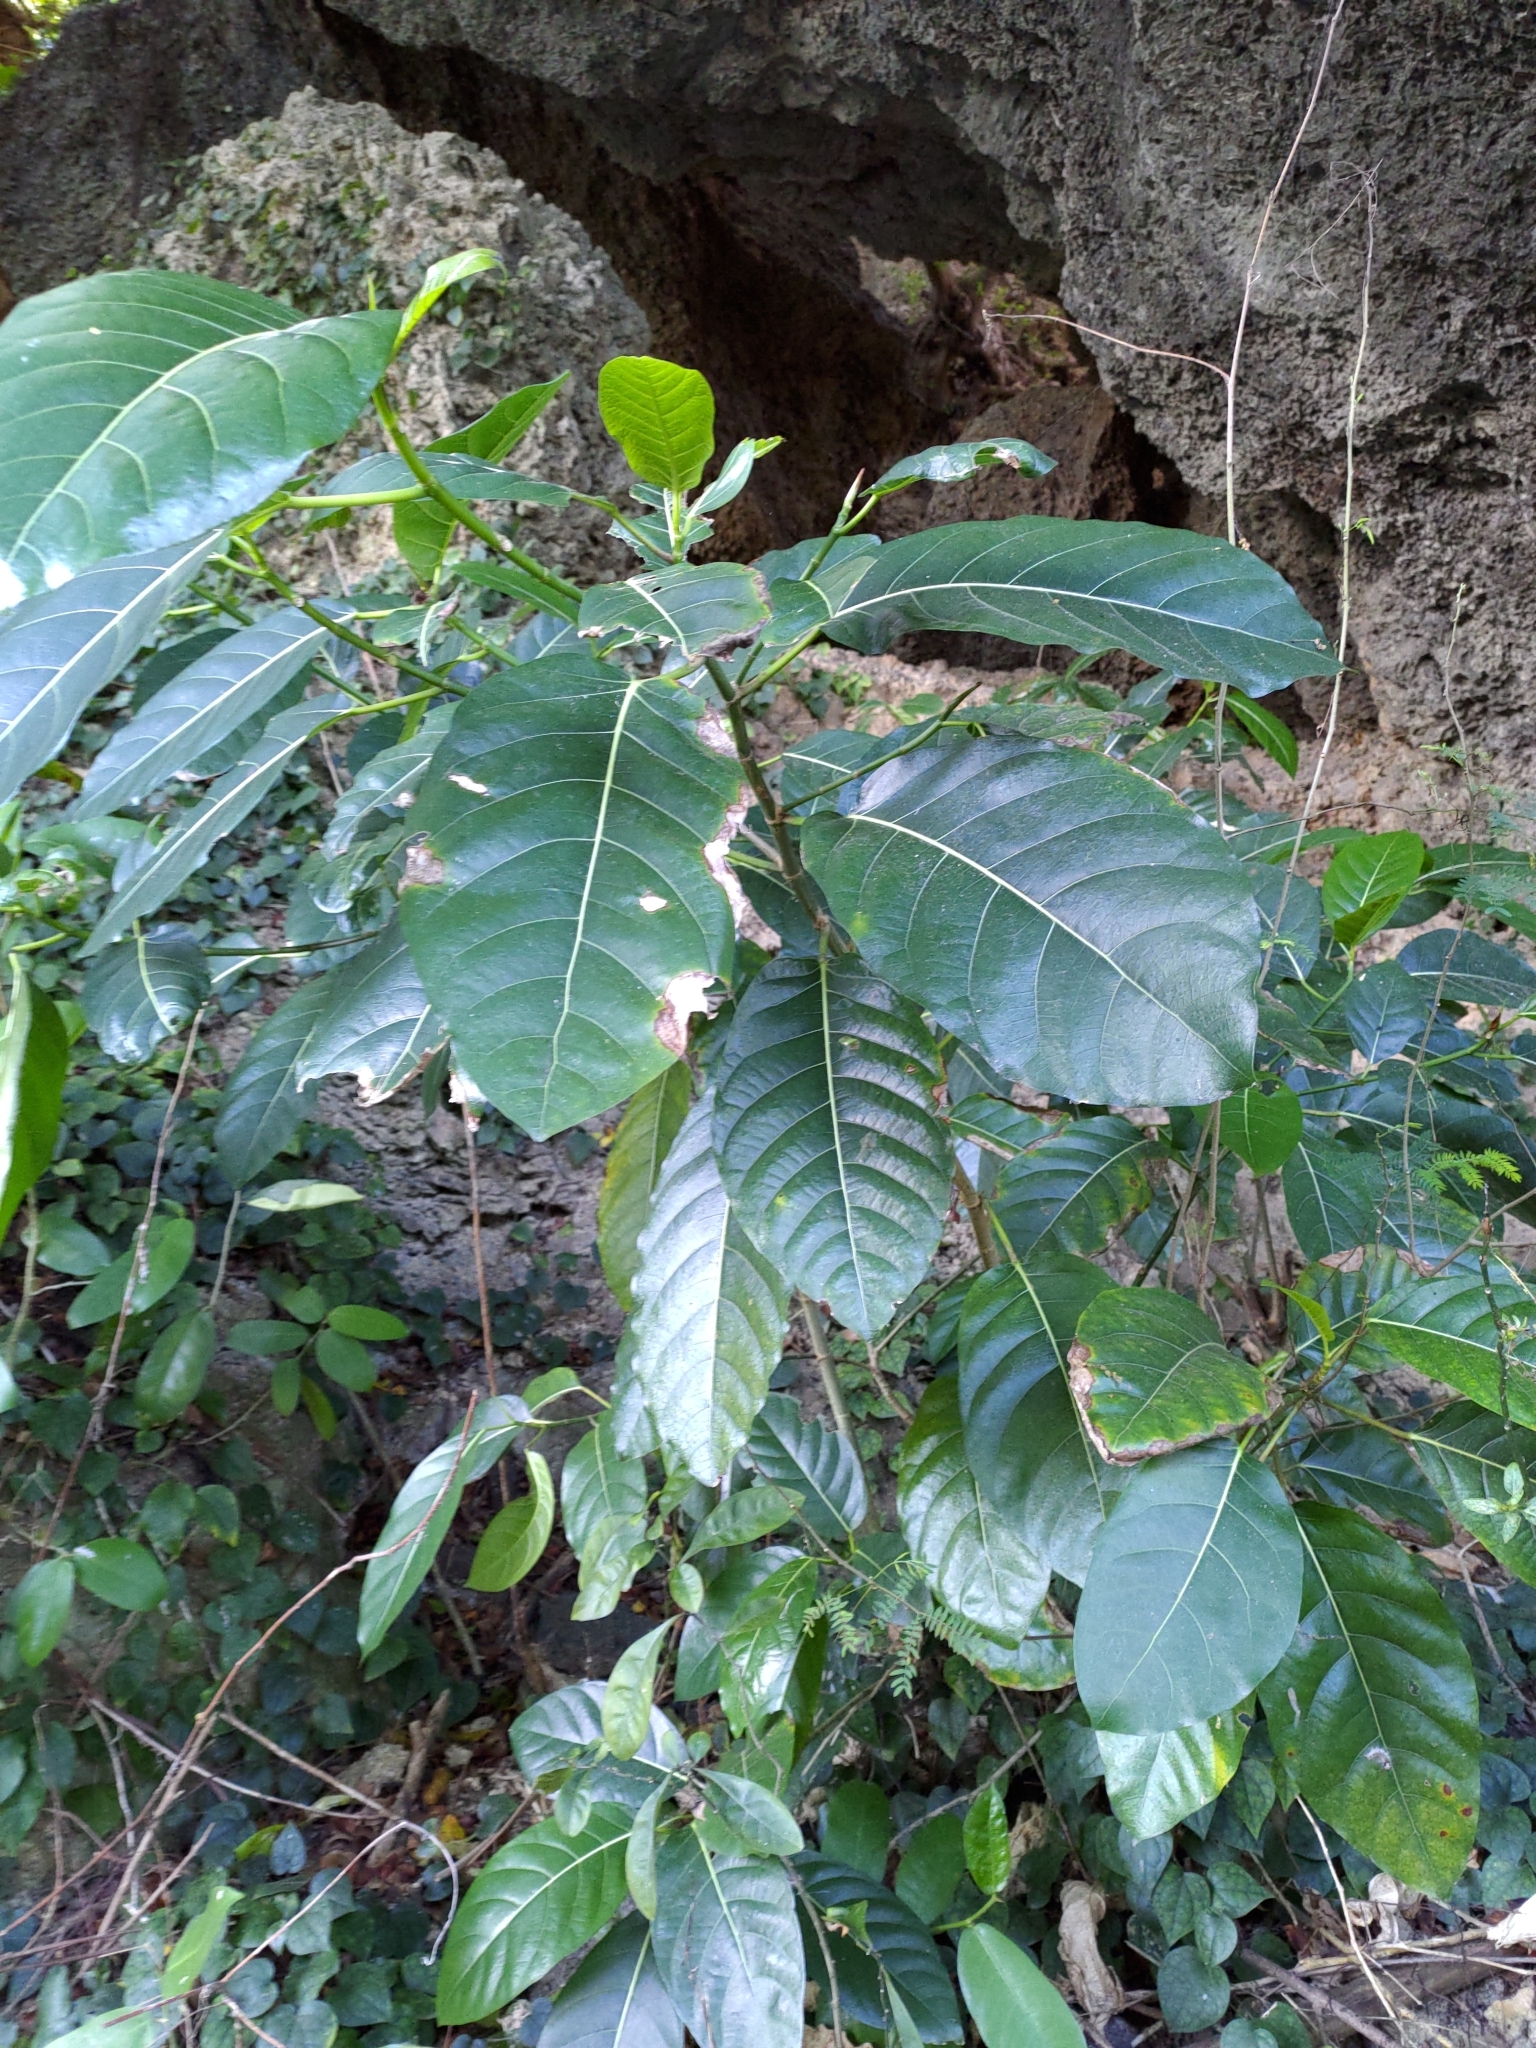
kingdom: Plantae
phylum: Tracheophyta
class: Magnoliopsida
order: Rosales
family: Moraceae
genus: Ficus
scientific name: Ficus septica
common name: Septic fig
